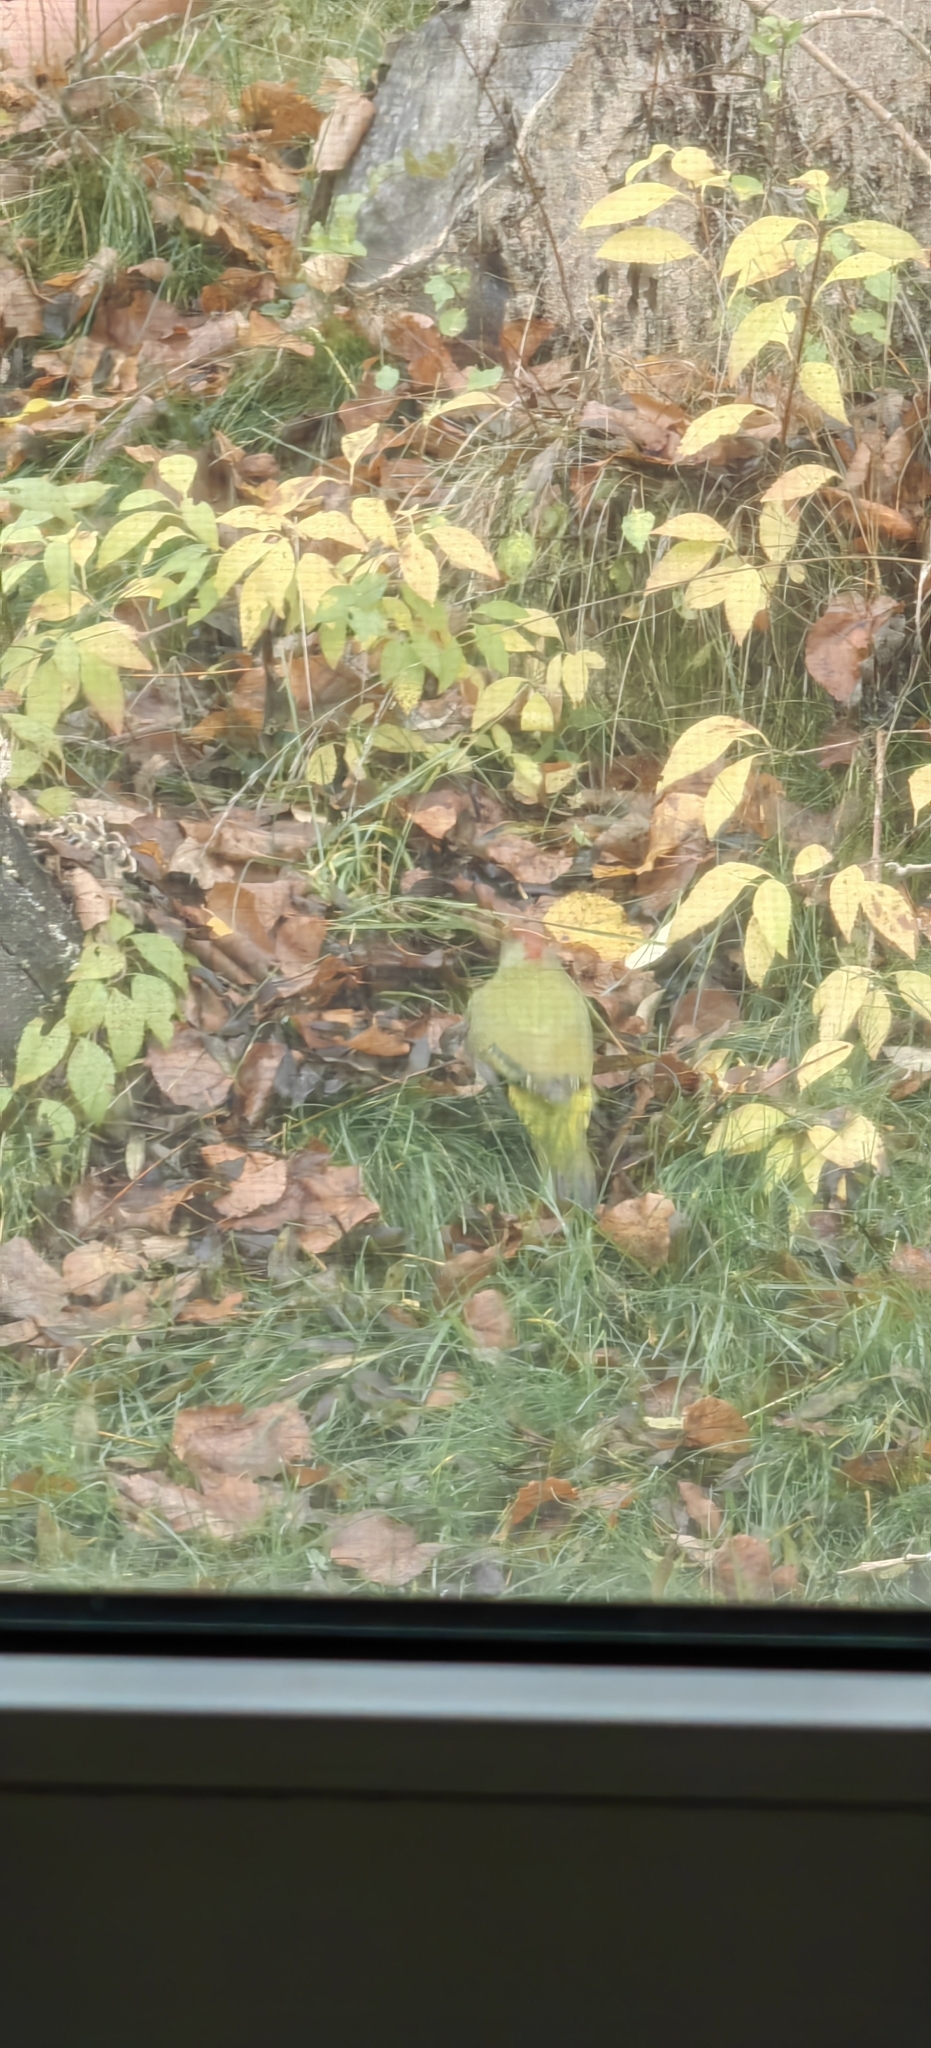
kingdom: Animalia
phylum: Chordata
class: Aves
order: Piciformes
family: Picidae
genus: Picus
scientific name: Picus viridis
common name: European green woodpecker
